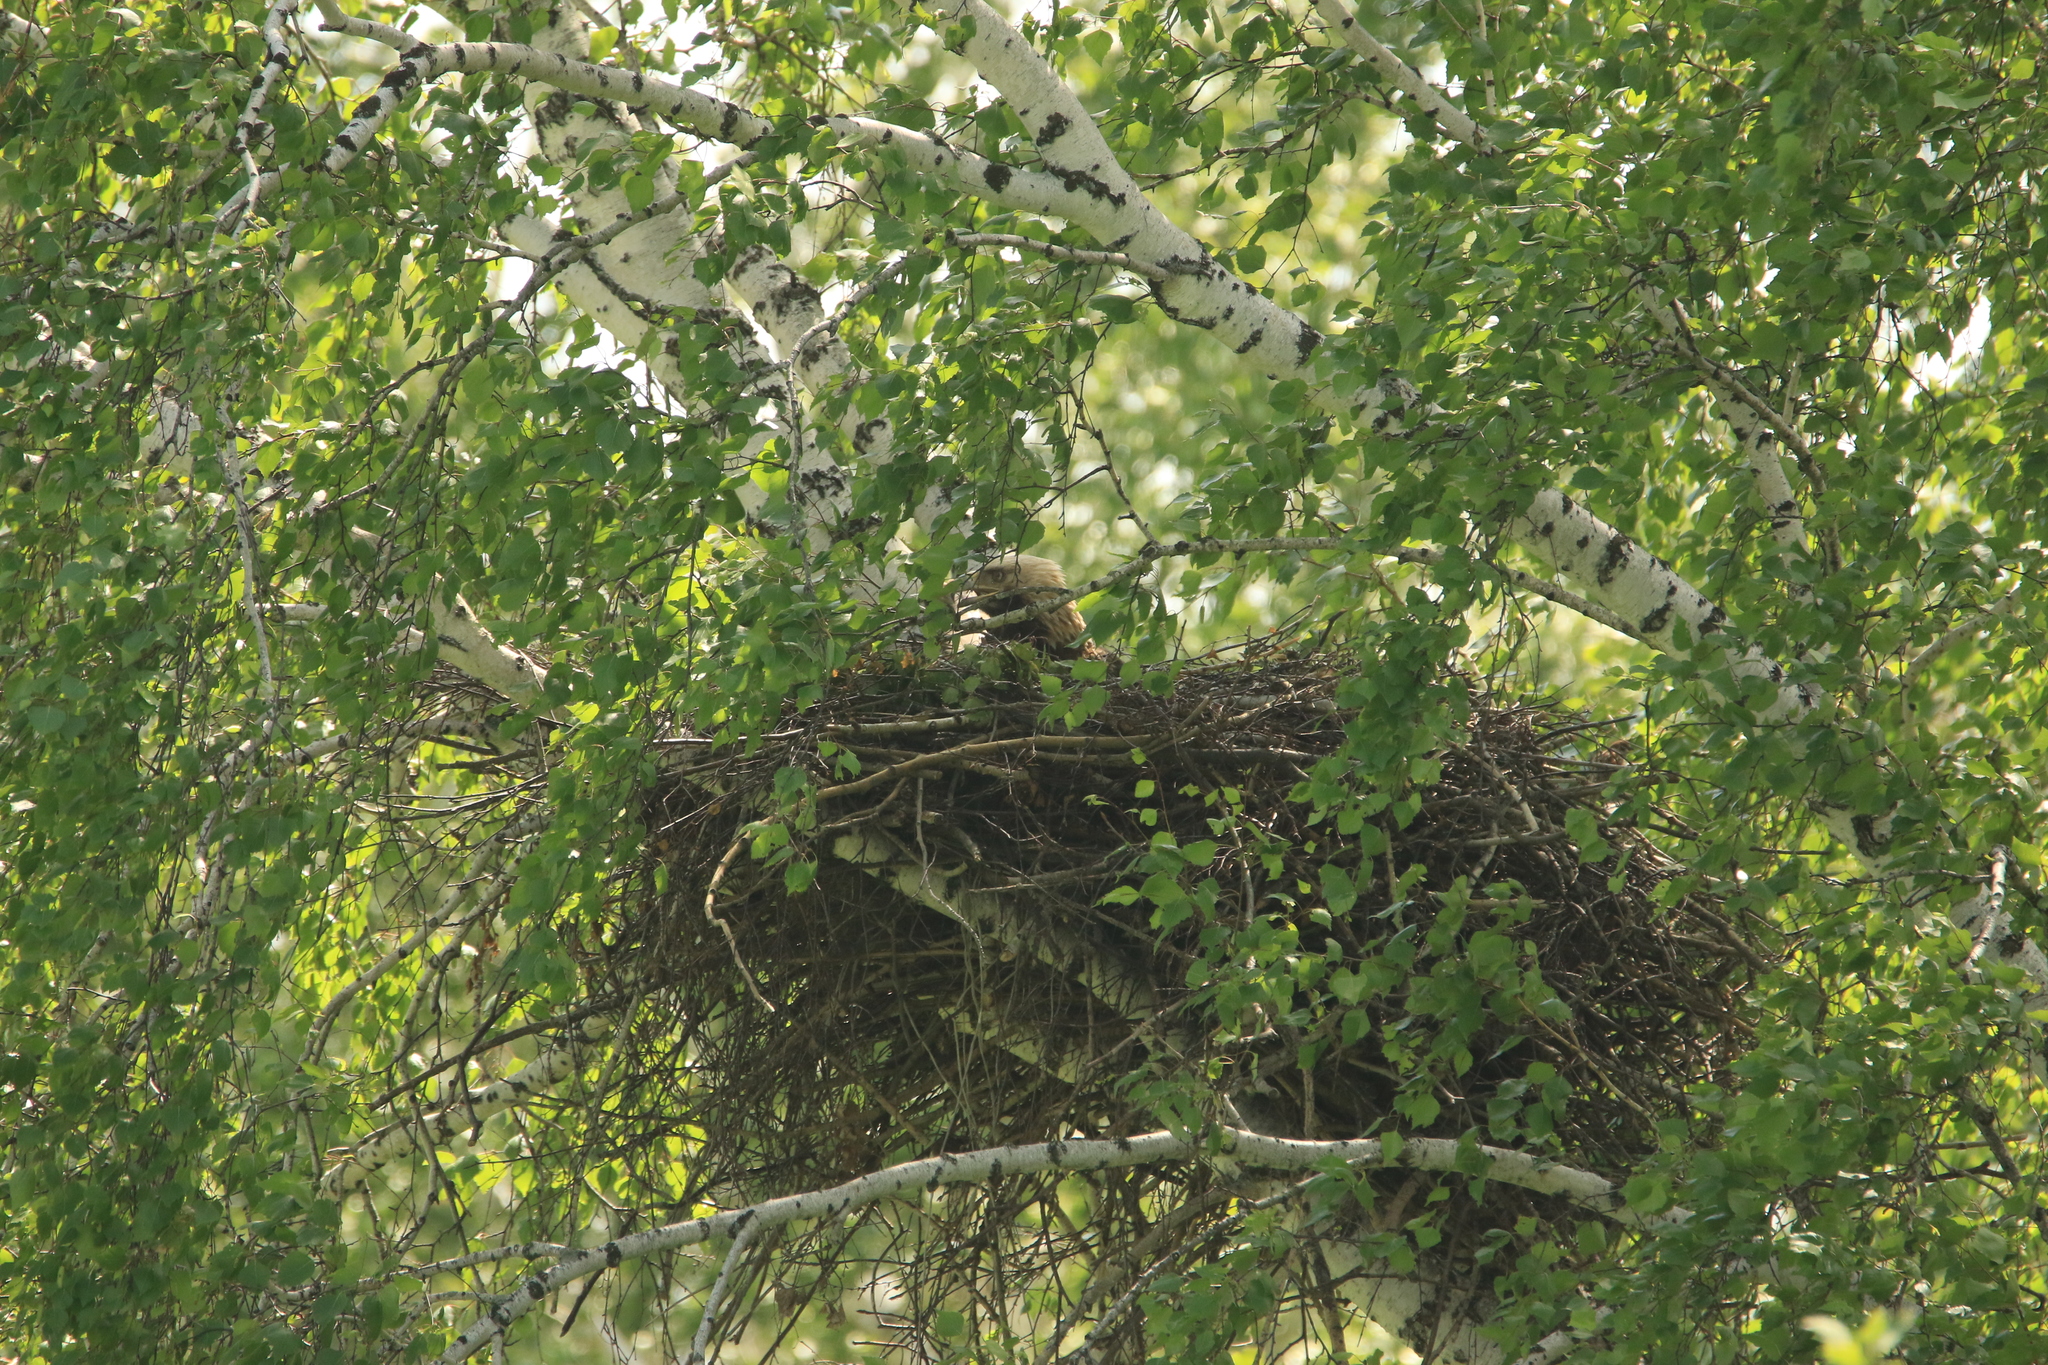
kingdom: Animalia
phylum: Chordata
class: Aves
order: Accipitriformes
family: Accipitridae
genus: Aquila
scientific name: Aquila heliaca
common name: Eastern imperial eagle
